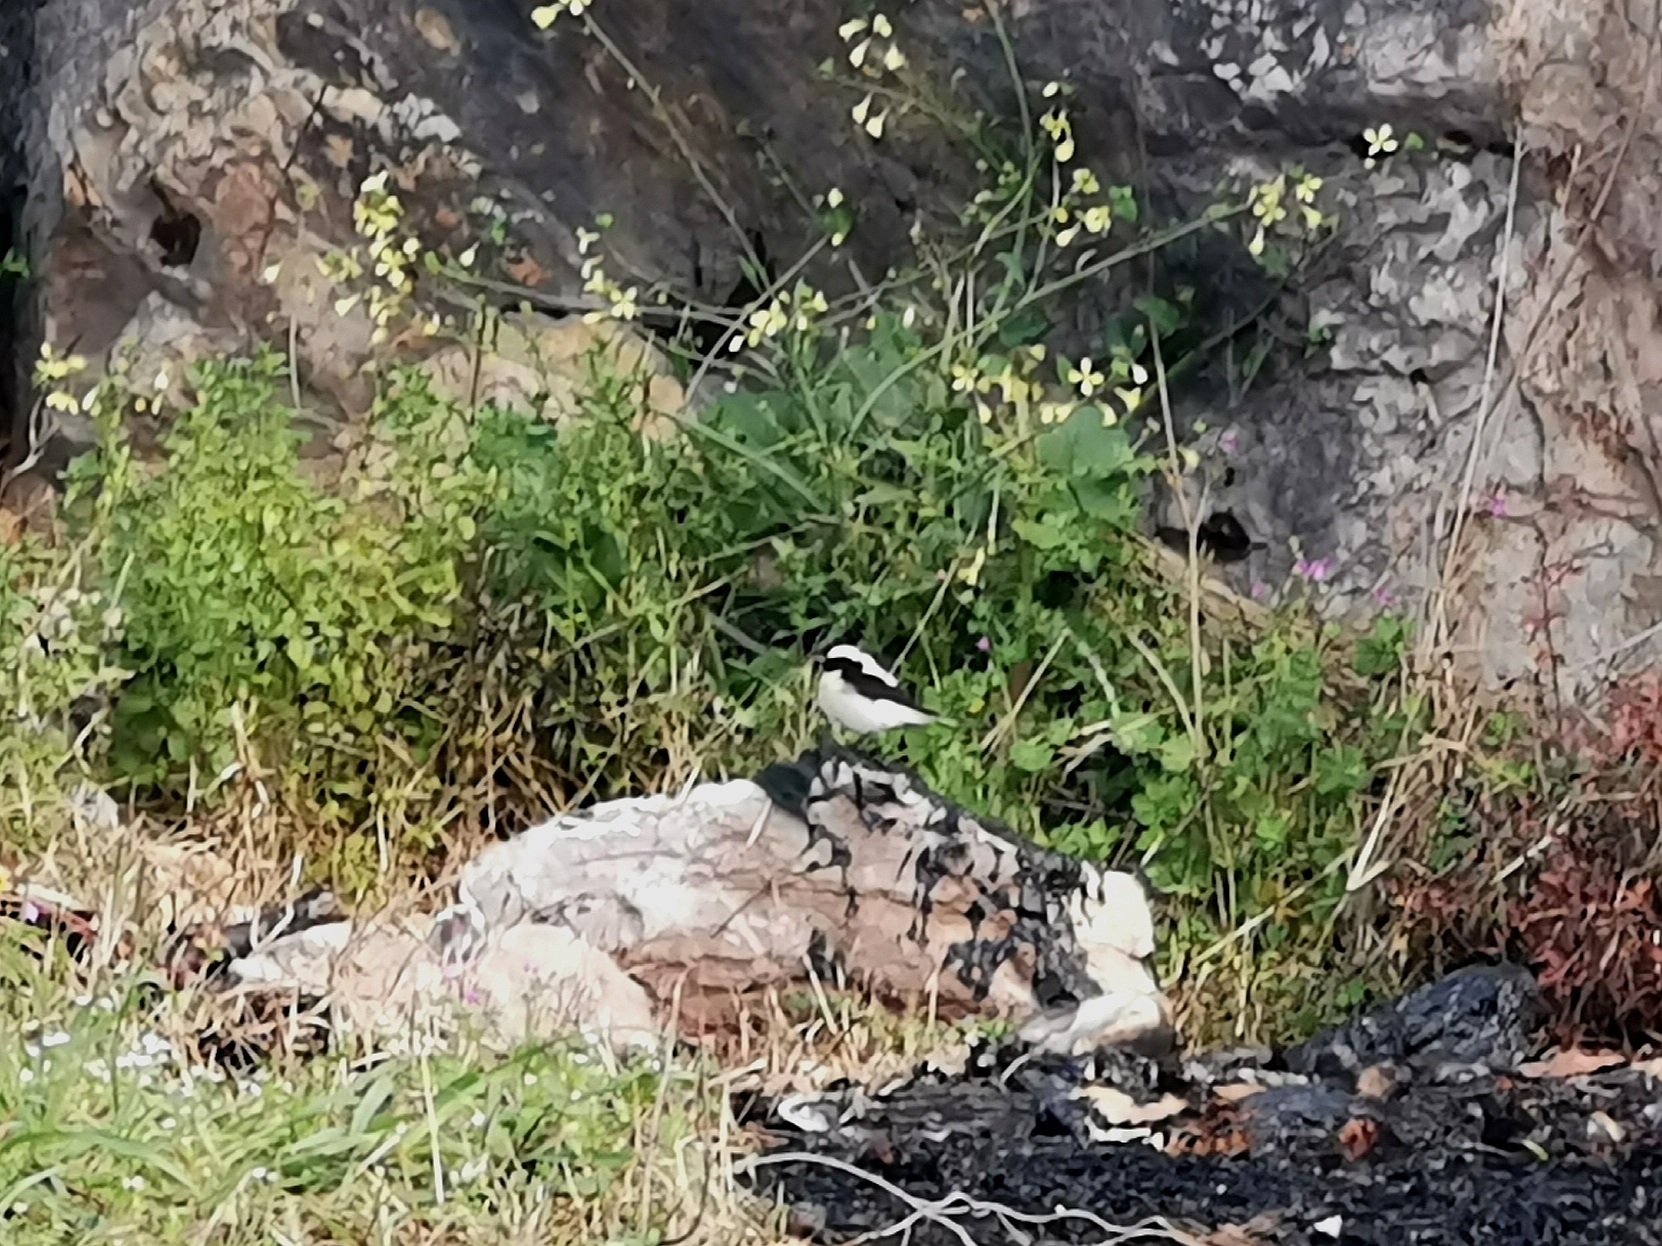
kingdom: Animalia
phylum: Chordata
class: Aves
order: Passeriformes
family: Muscicapidae
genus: Oenanthe
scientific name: Oenanthe hispanica
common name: Black-eared wheatear
